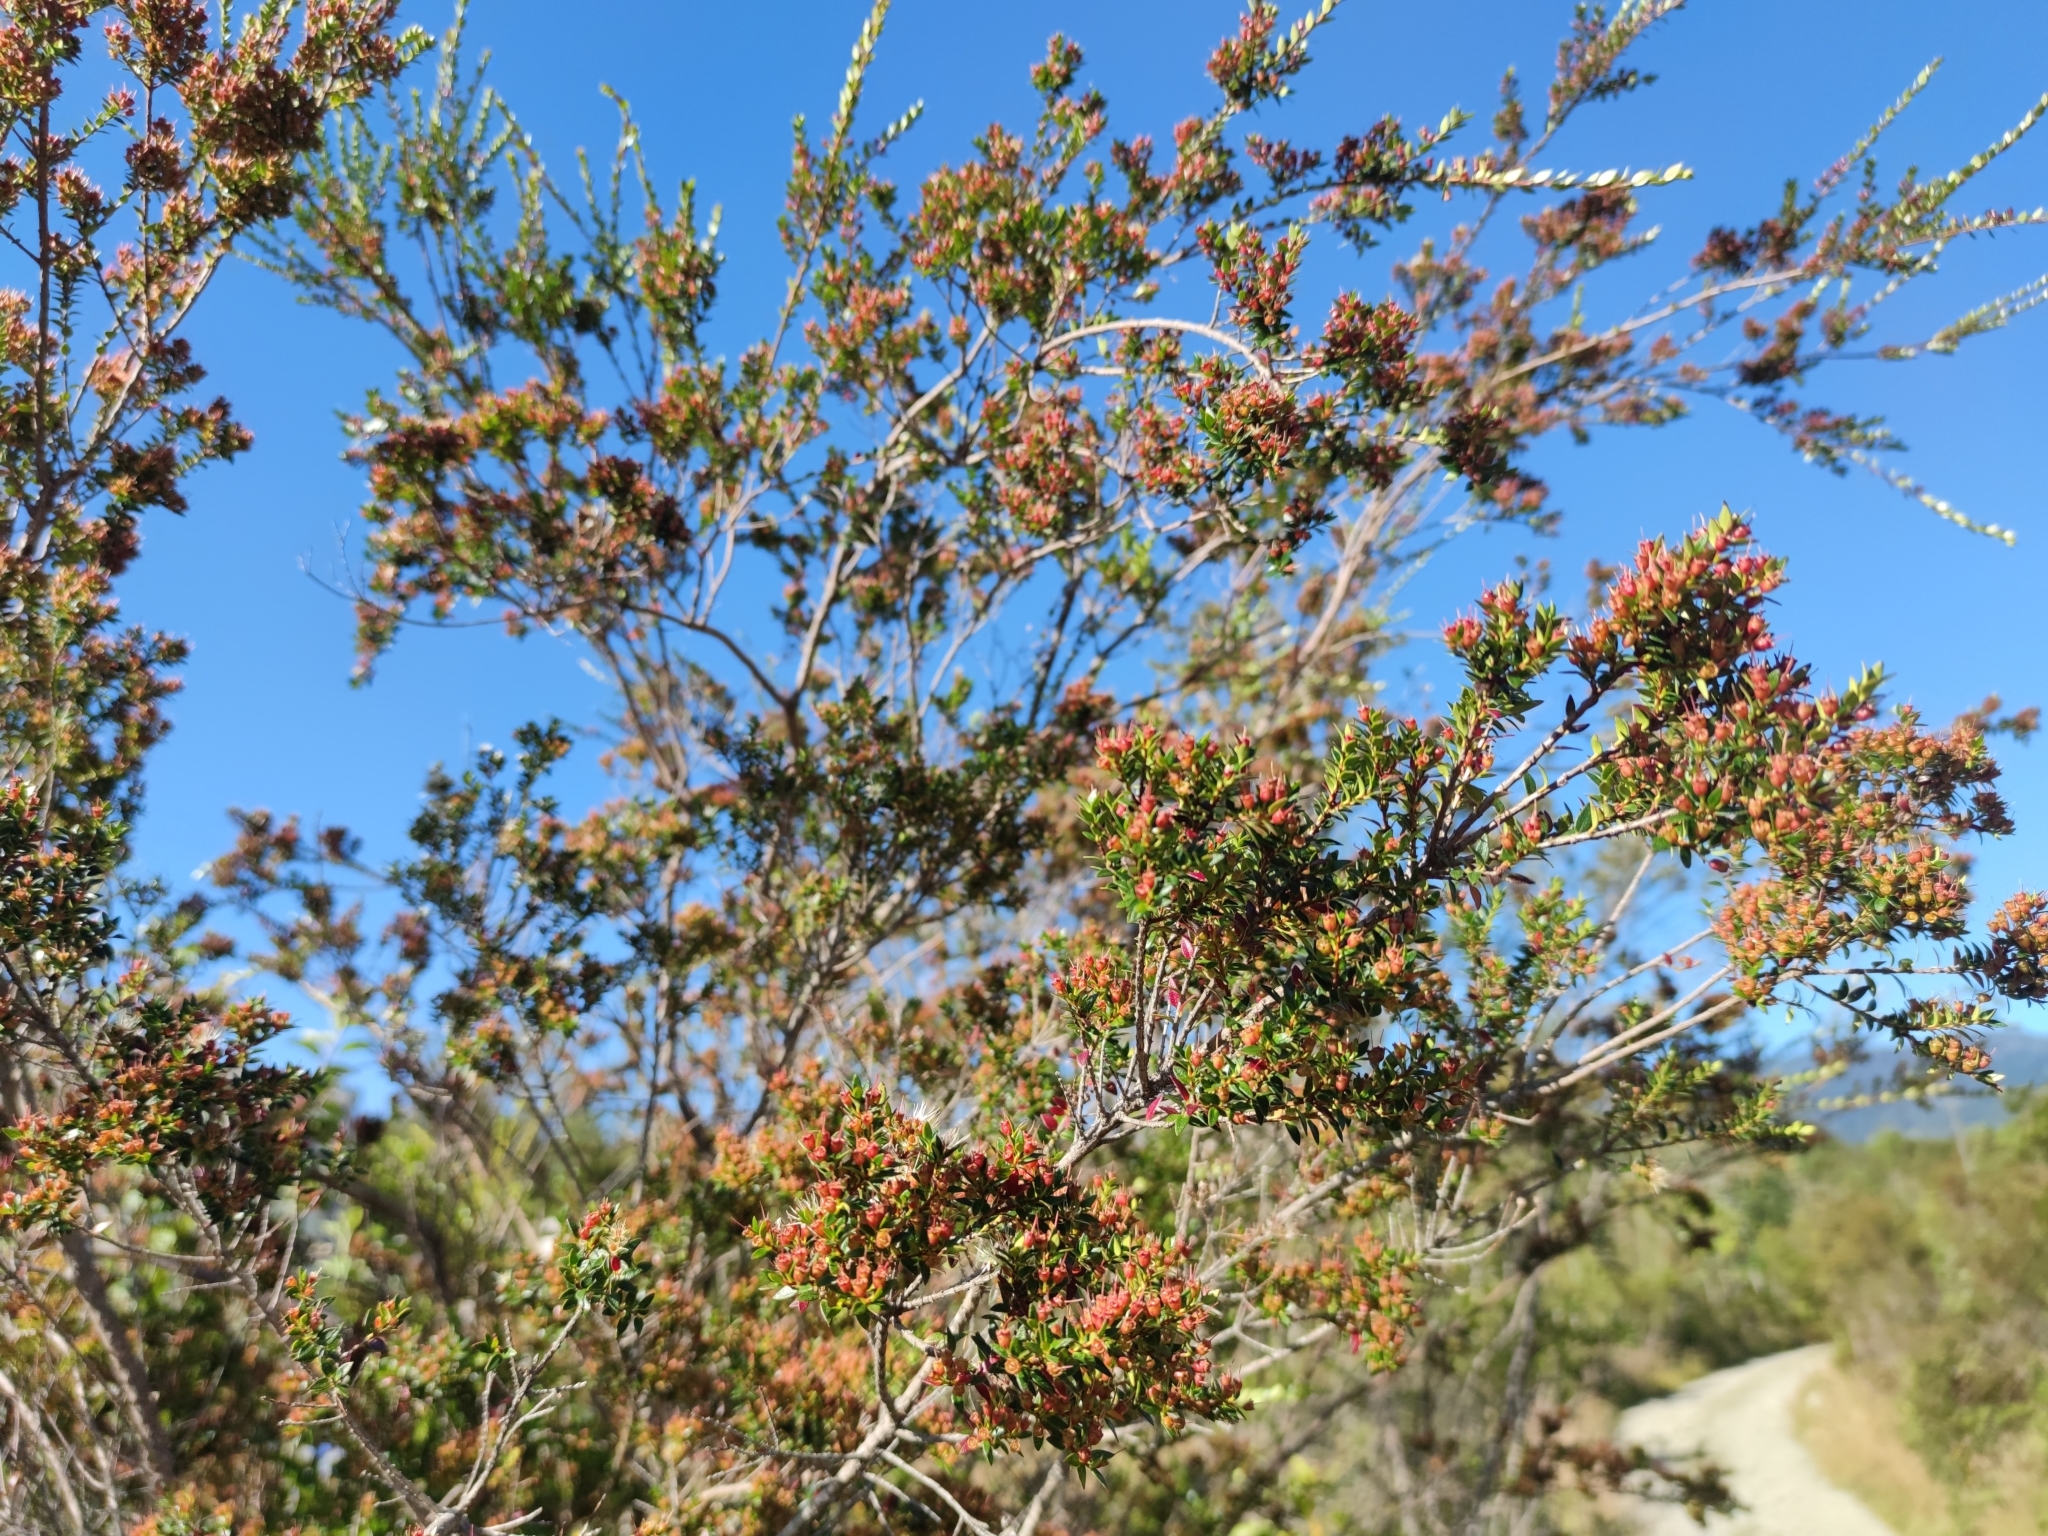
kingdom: Plantae
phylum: Tracheophyta
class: Magnoliopsida
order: Myrtales
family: Myrtaceae
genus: Tepualia
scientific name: Tepualia stipularis
